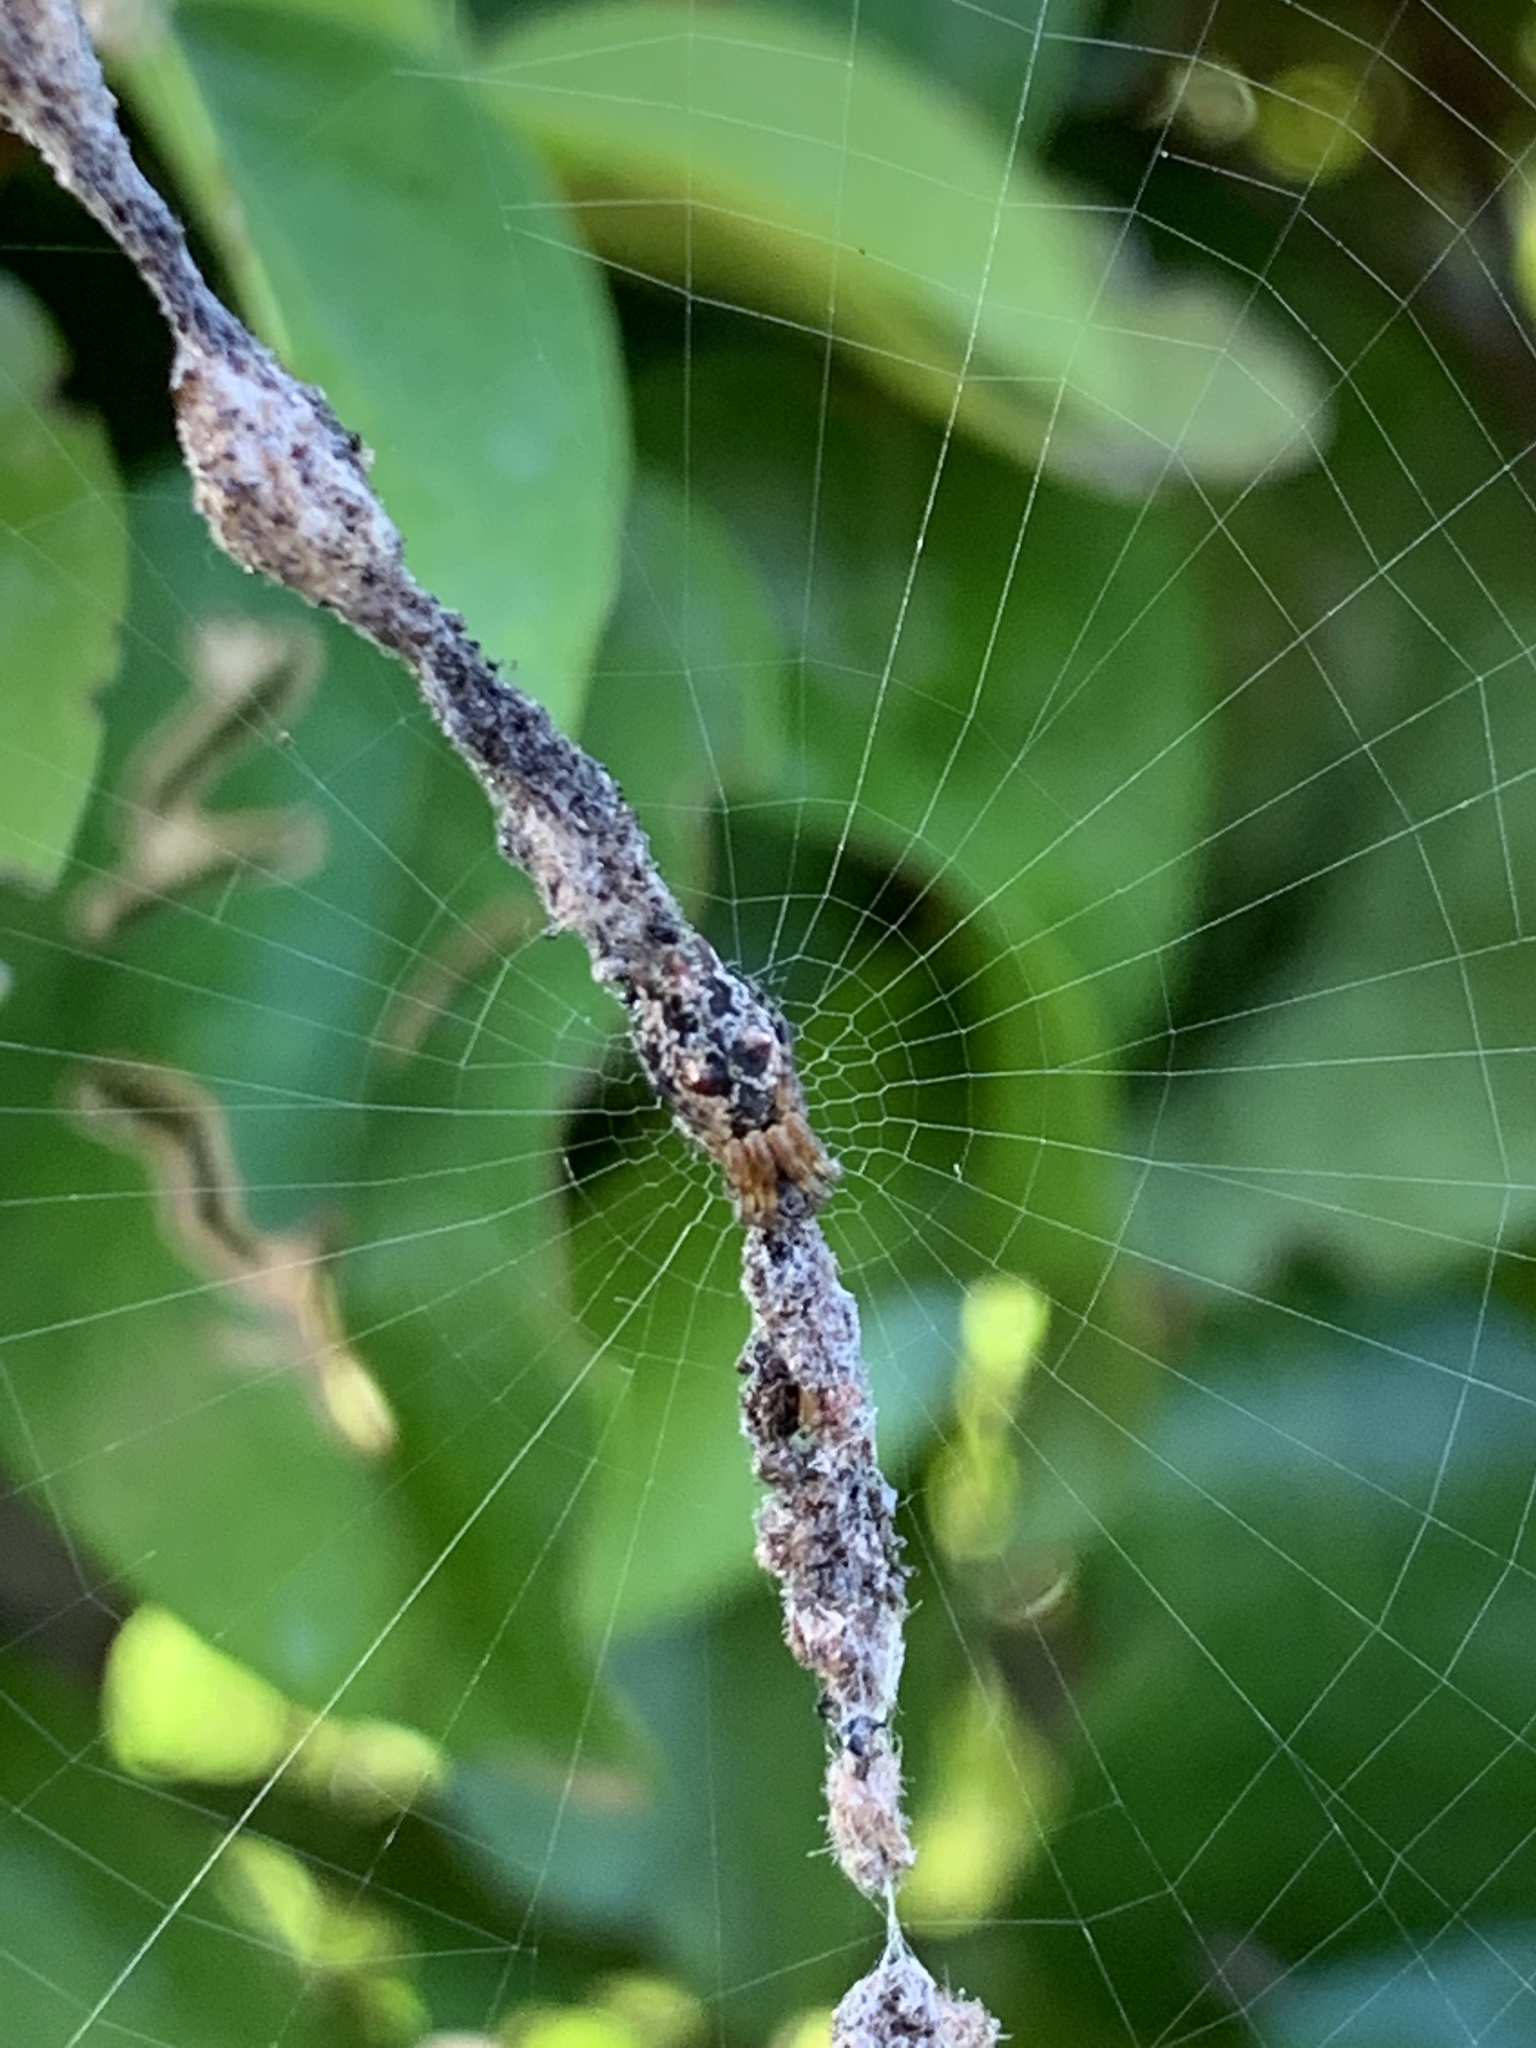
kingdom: Animalia
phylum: Arthropoda
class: Arachnida
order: Araneae
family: Araneidae
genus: Cyclosa
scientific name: Cyclosa walckenaeri
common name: Orb weavers
